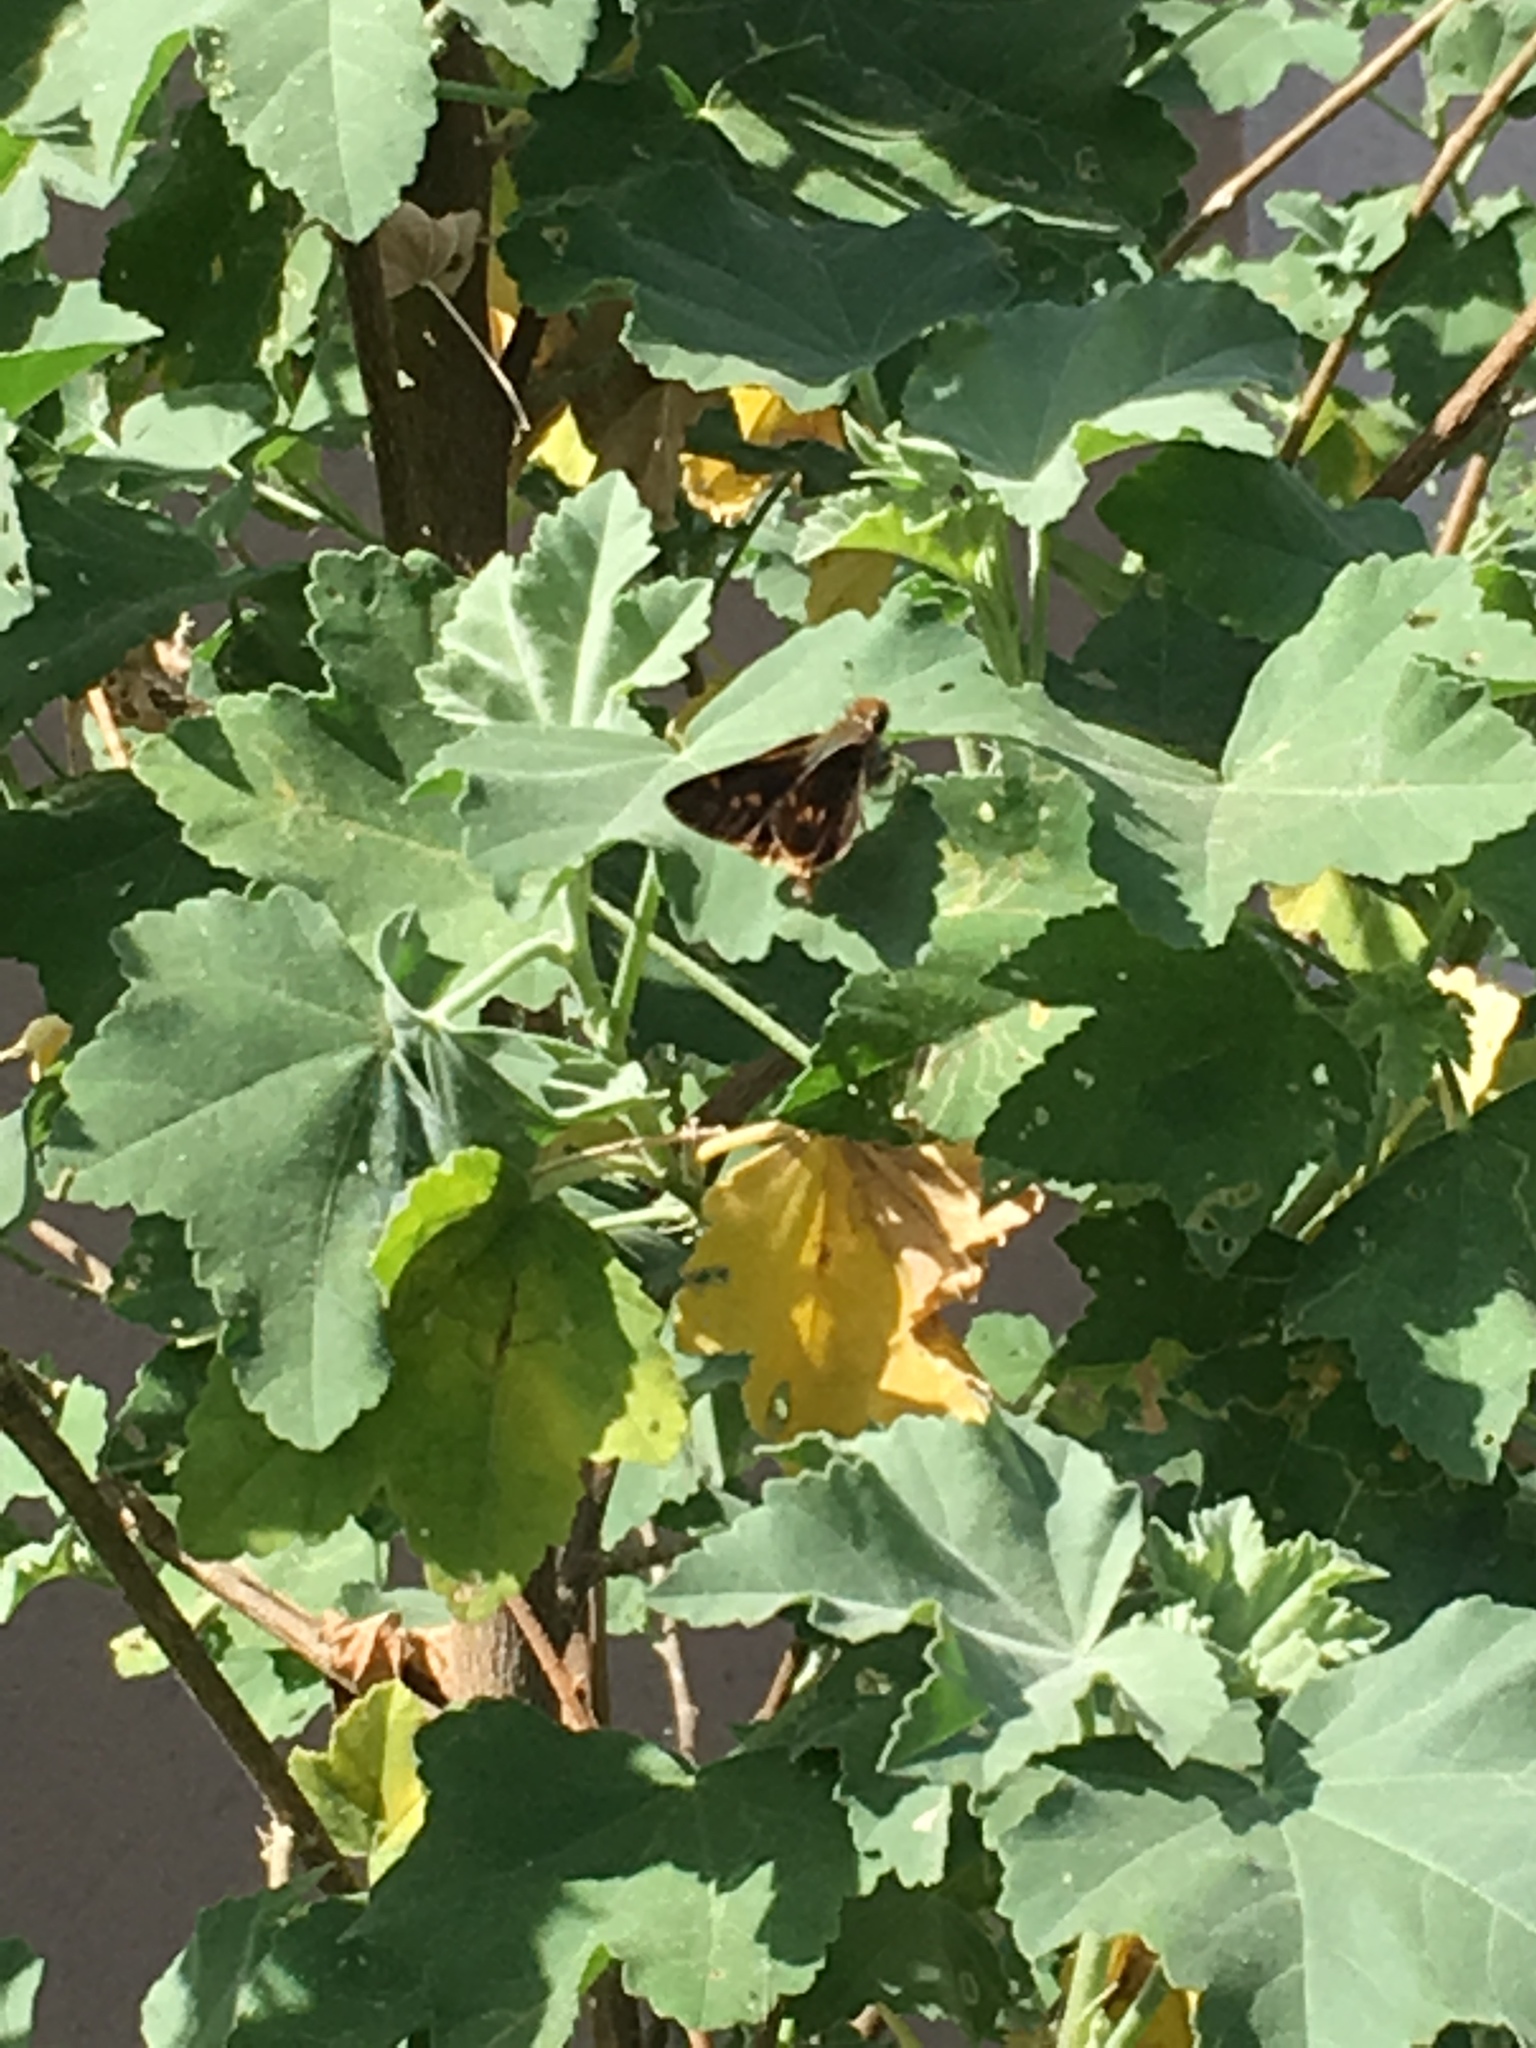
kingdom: Animalia
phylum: Arthropoda
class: Insecta
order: Lepidoptera
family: Hesperiidae
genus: Lon
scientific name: Lon melane
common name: Umber skipper
